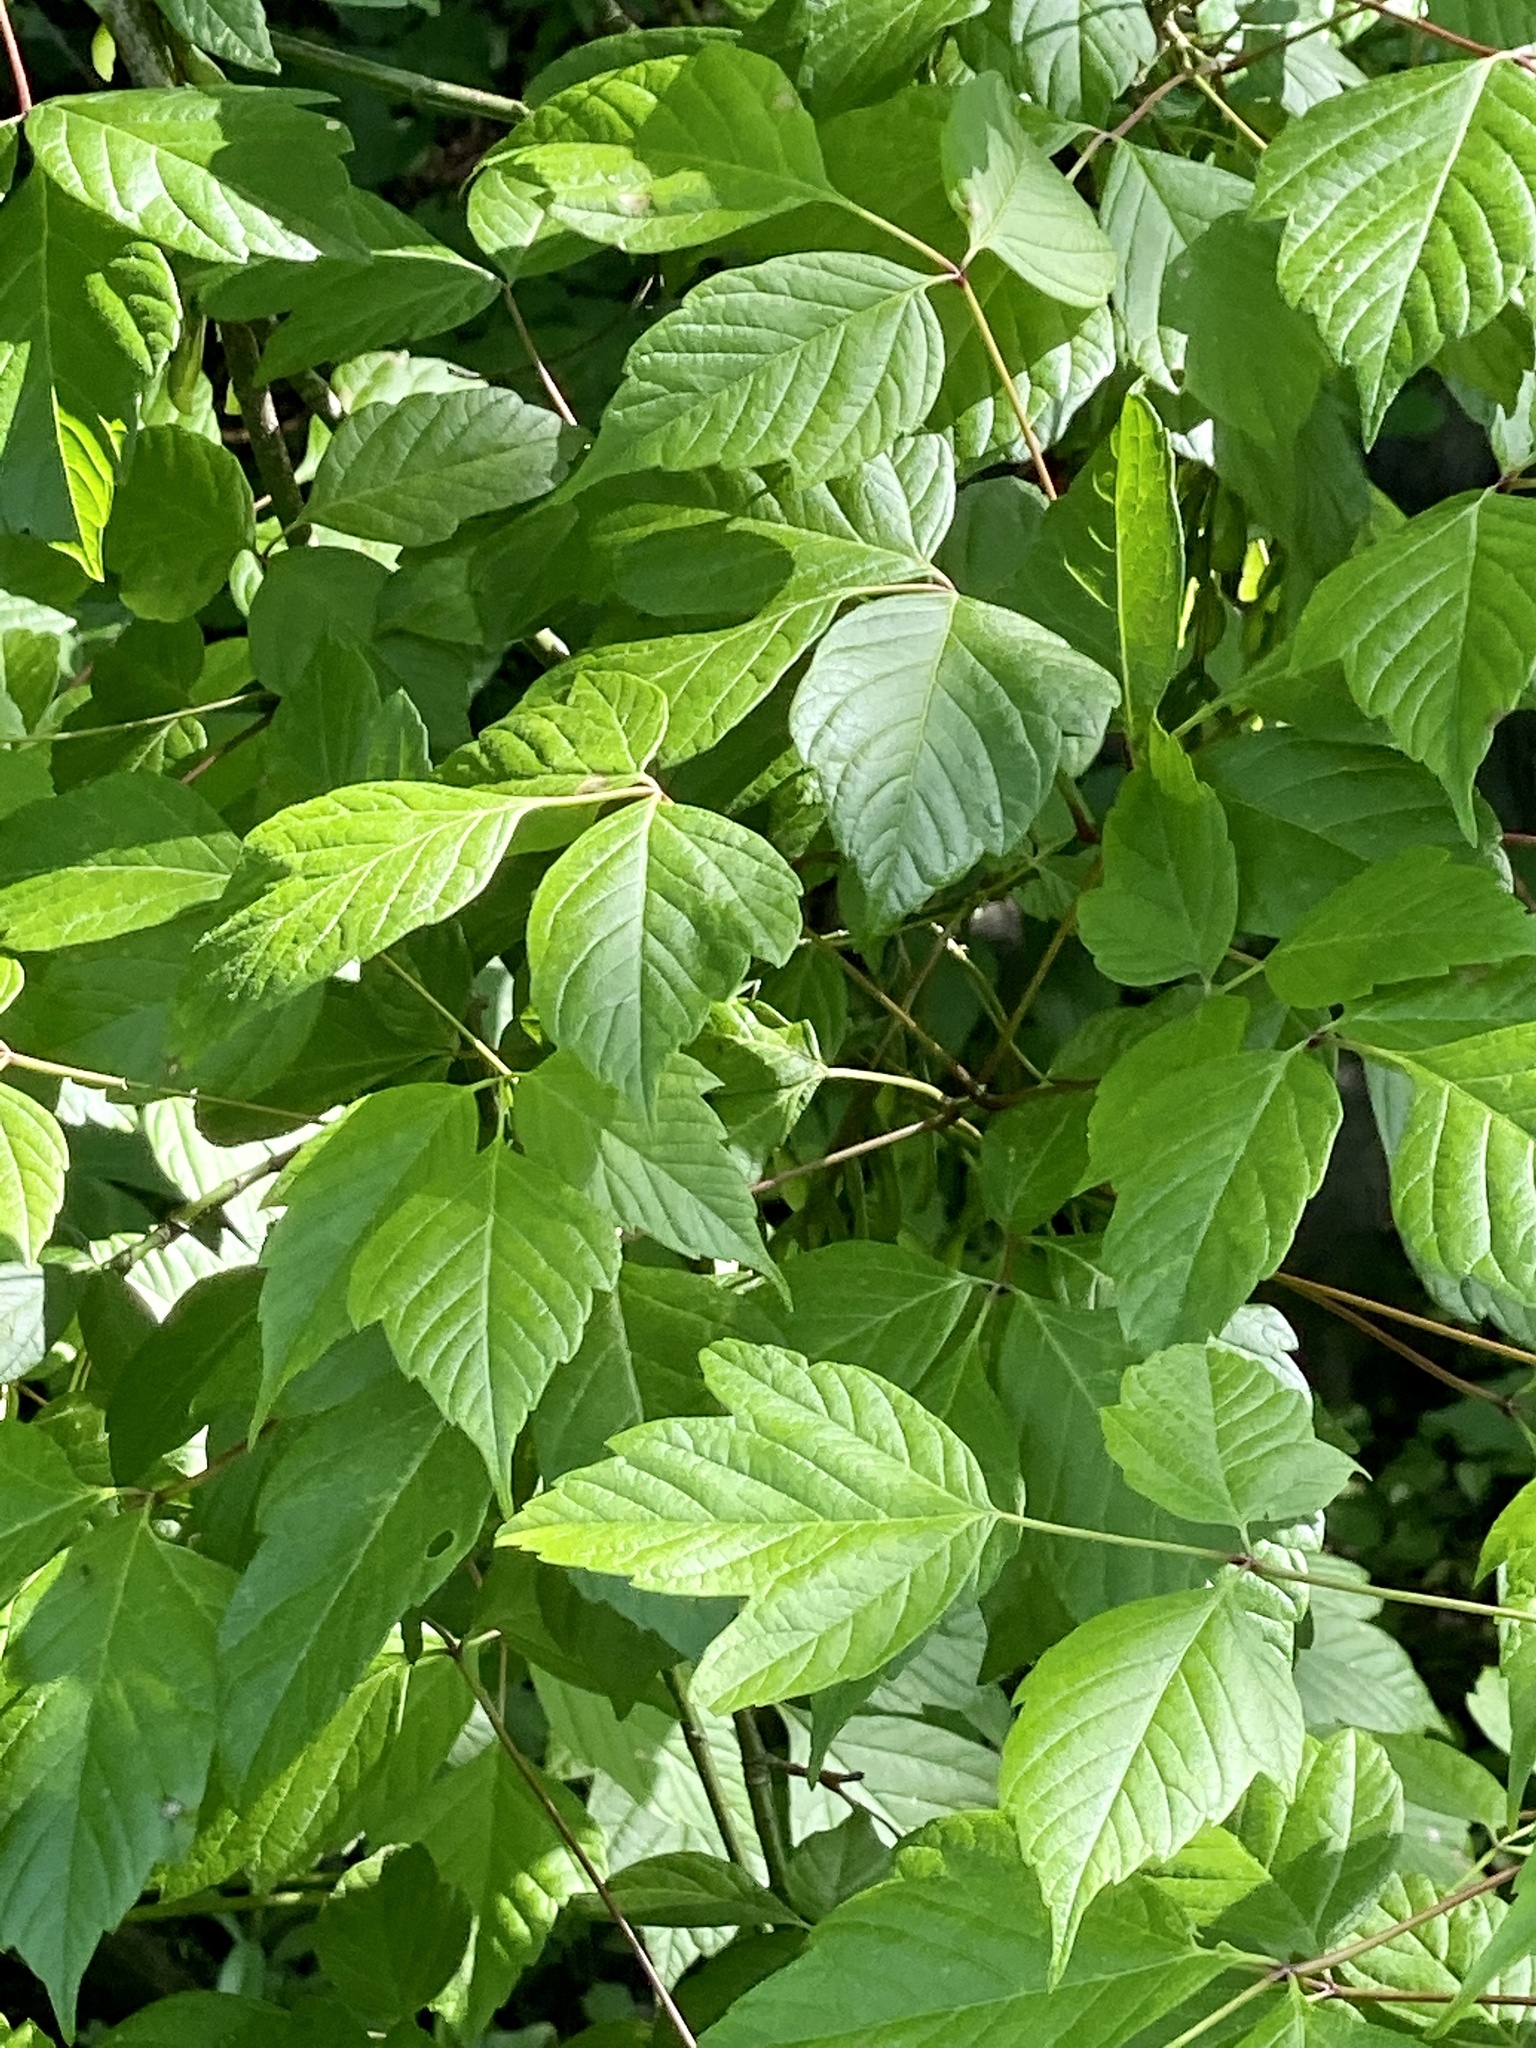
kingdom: Plantae
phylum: Tracheophyta
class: Magnoliopsida
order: Sapindales
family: Sapindaceae
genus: Acer
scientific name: Acer negundo
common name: Ashleaf maple
